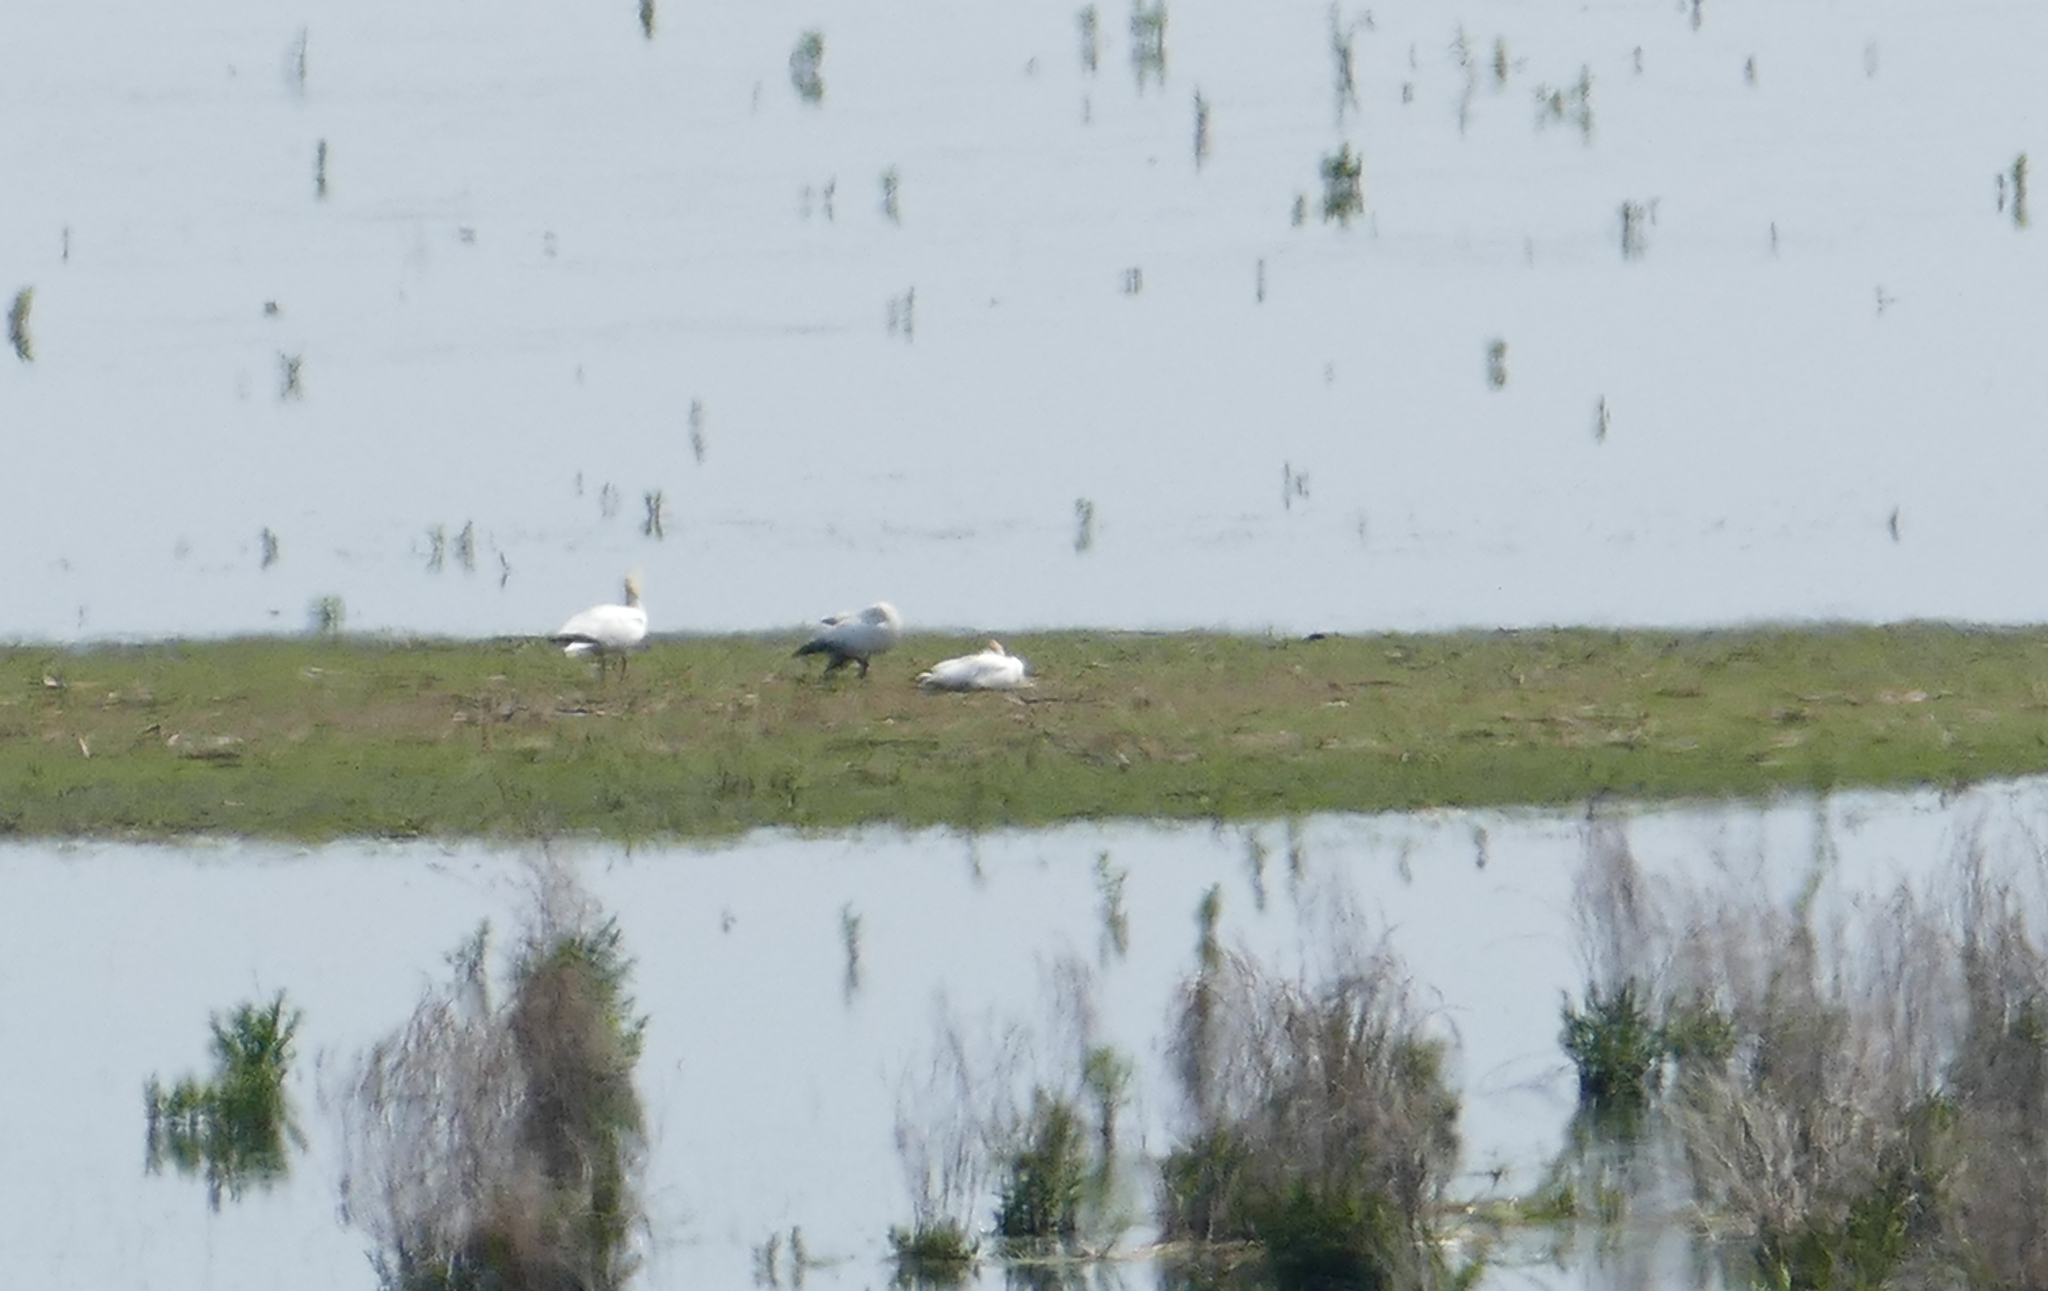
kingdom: Animalia
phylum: Chordata
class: Aves
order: Anseriformes
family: Anatidae
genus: Anser
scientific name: Anser caerulescens
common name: Snow goose
